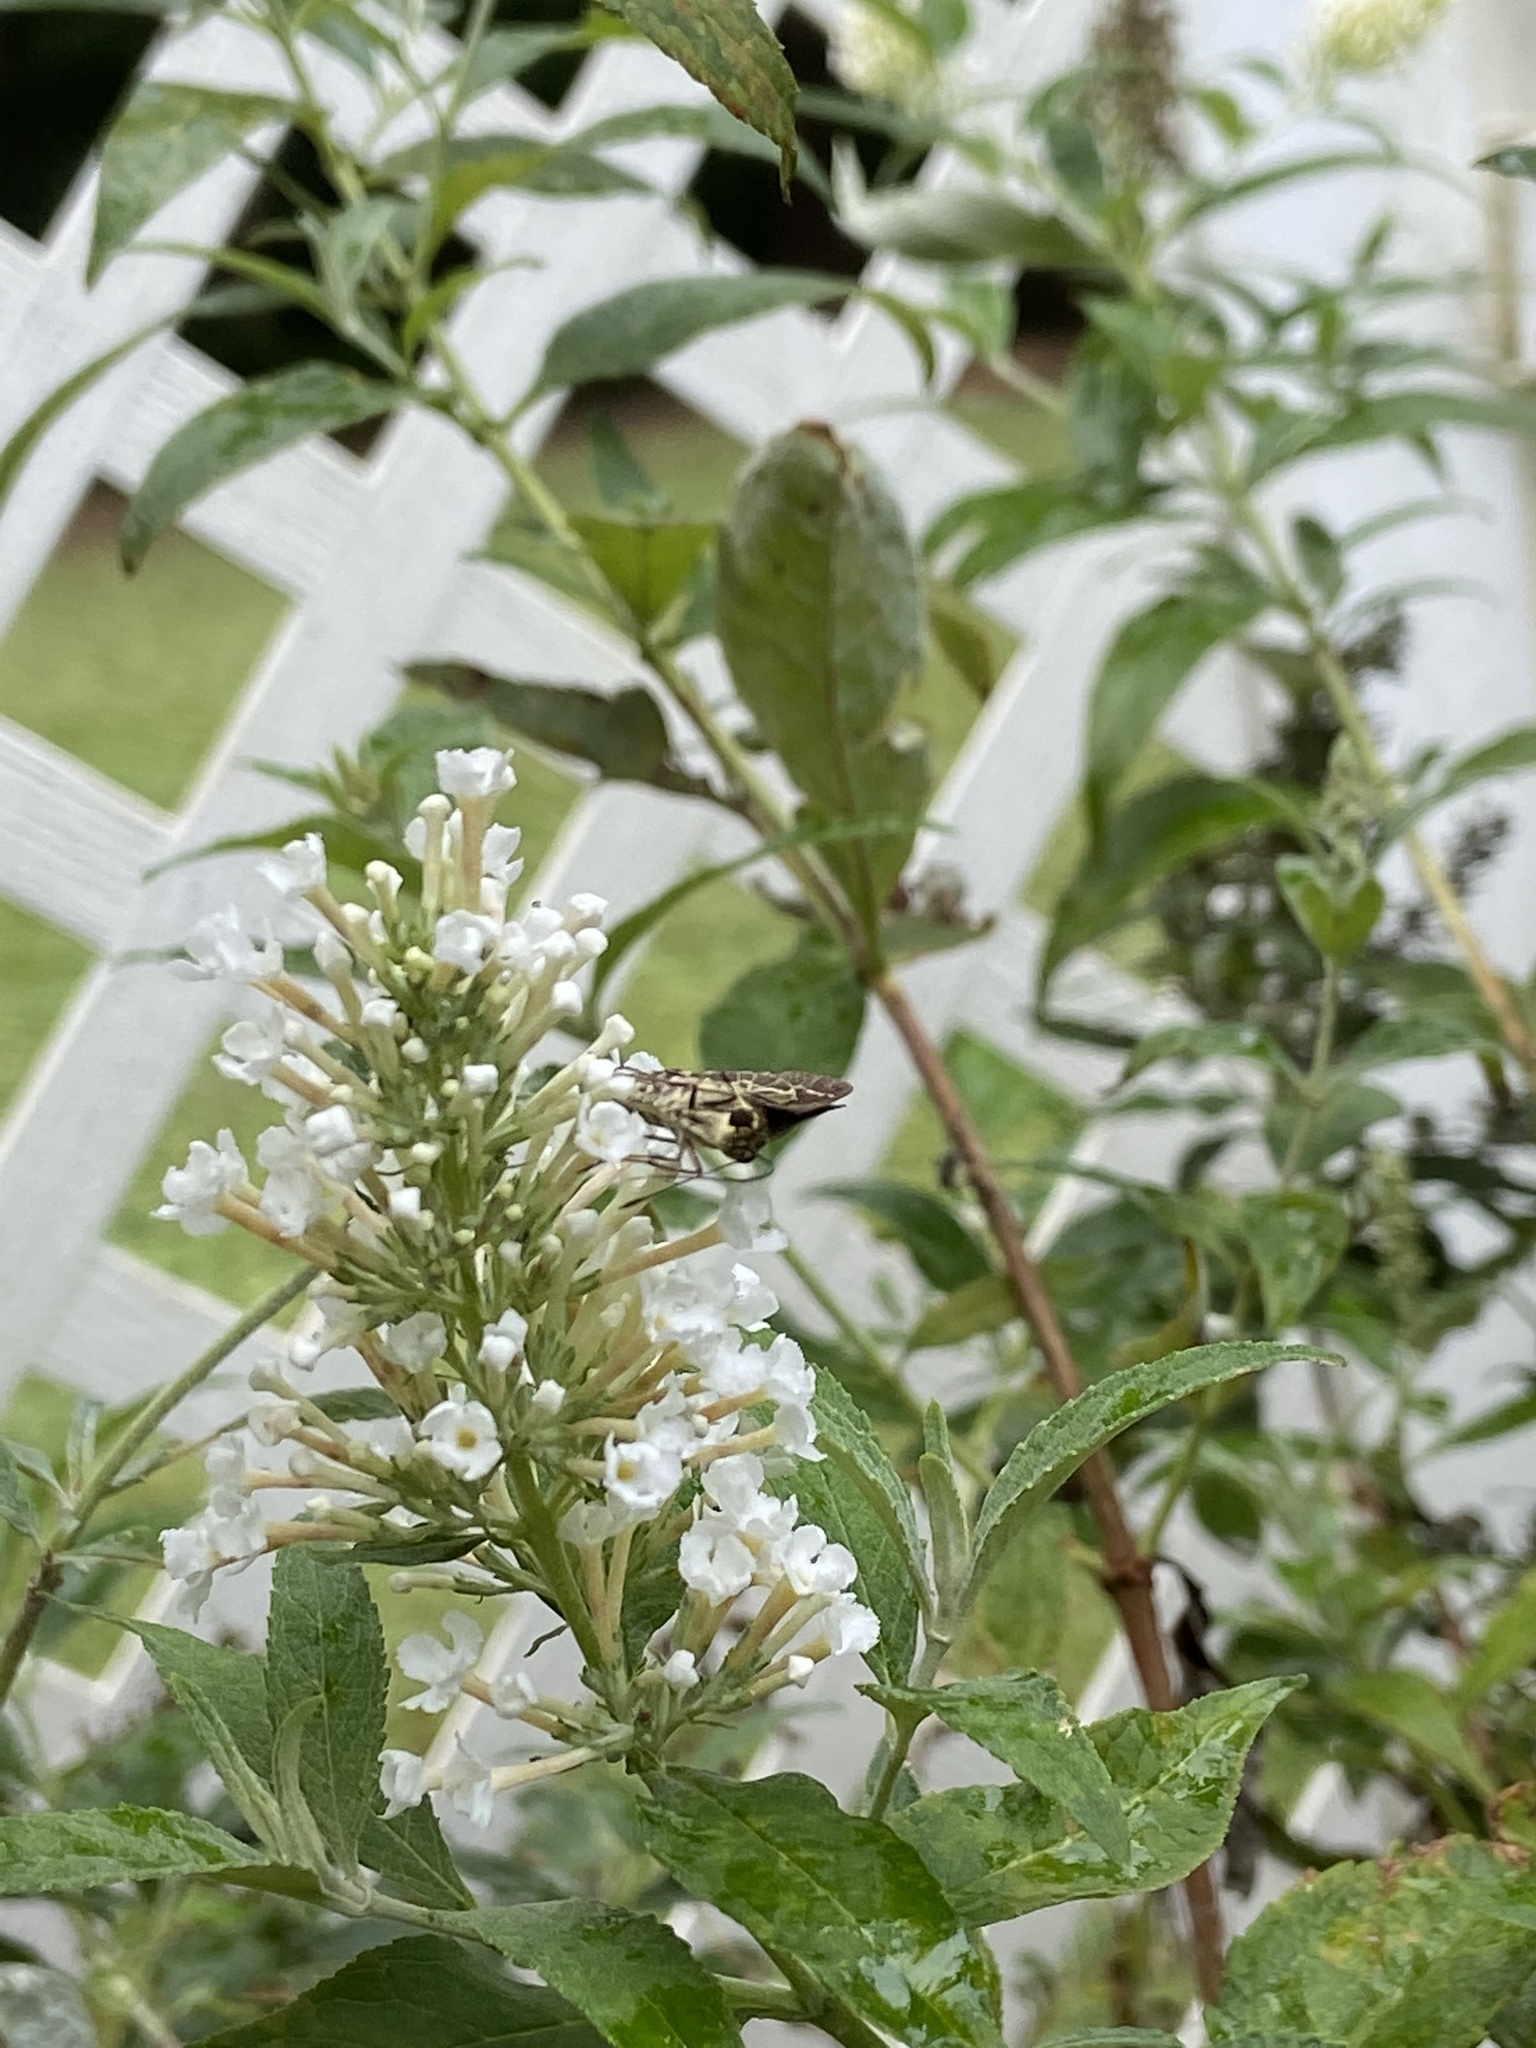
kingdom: Animalia
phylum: Arthropoda
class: Insecta
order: Lepidoptera
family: Hesperiidae
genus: Mastor
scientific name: Mastor aesculapius
